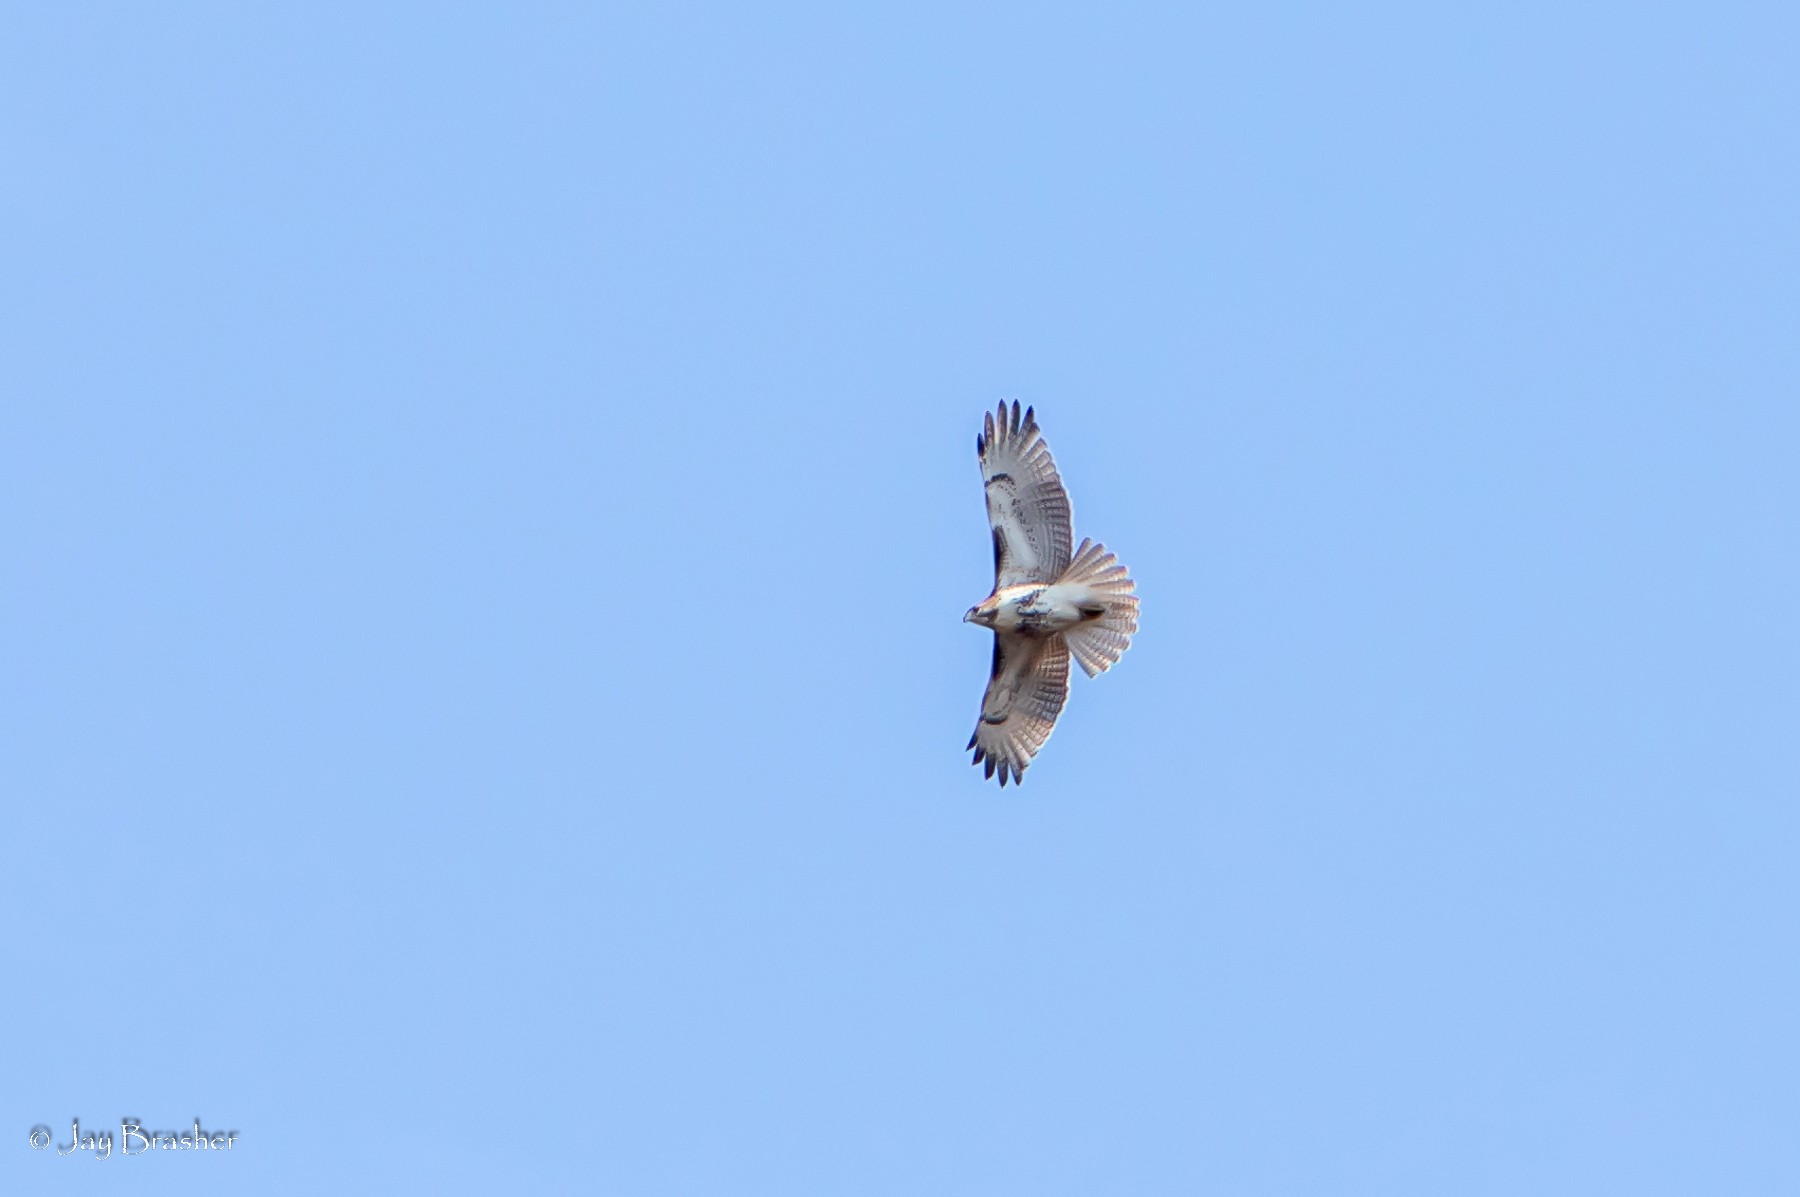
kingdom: Animalia
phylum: Chordata
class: Aves
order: Accipitriformes
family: Accipitridae
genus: Buteo
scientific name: Buteo jamaicensis
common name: Red-tailed hawk
